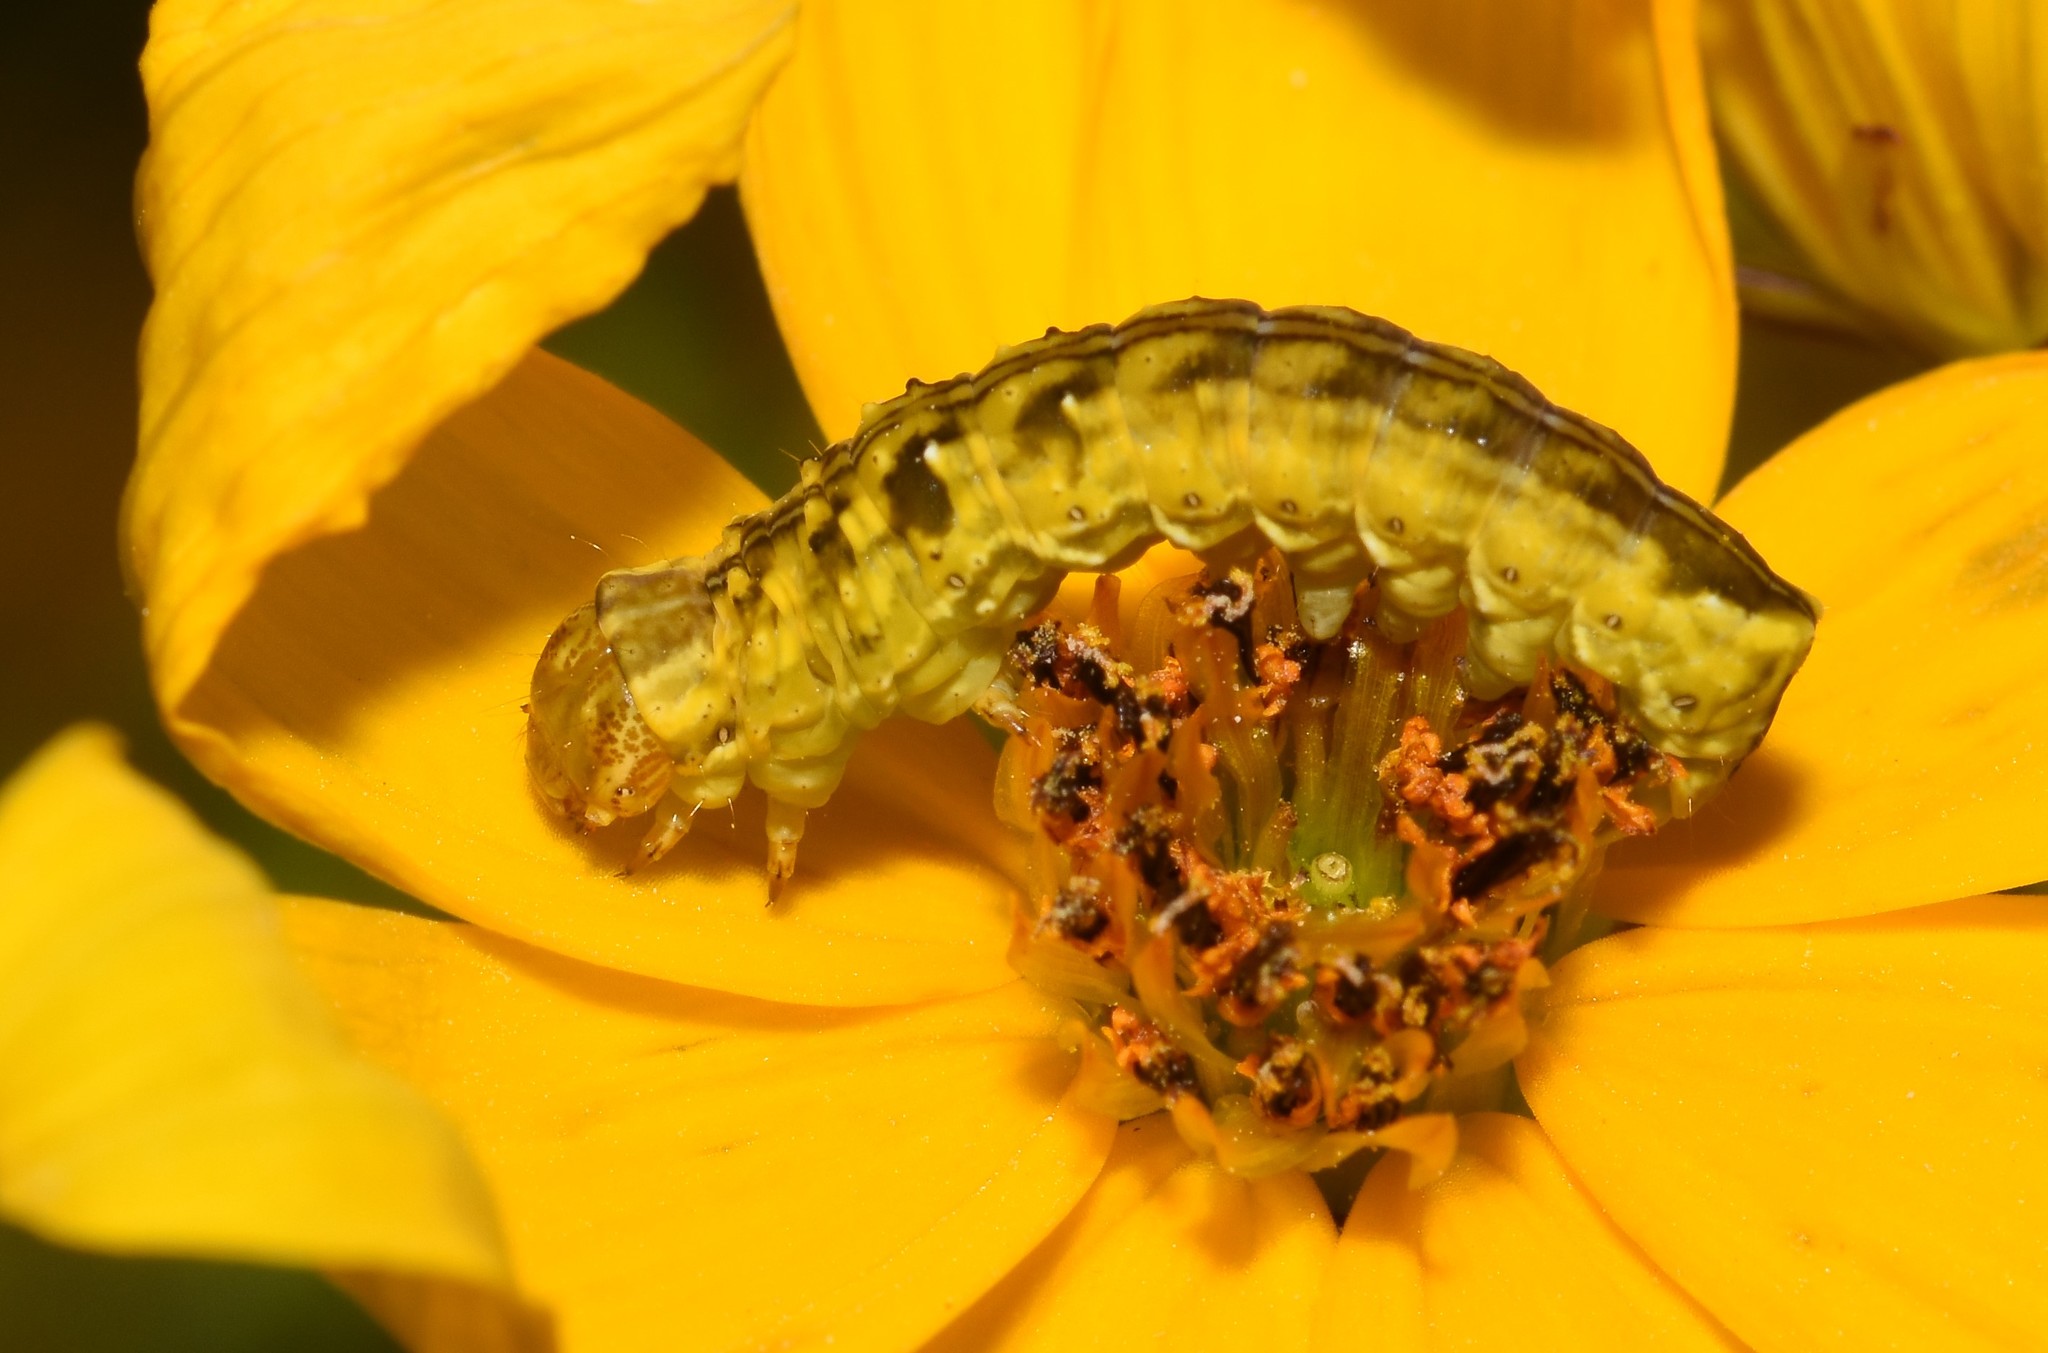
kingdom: Animalia
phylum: Arthropoda
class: Insecta
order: Lepidoptera
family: Noctuidae
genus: Cirrhophanus
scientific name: Cirrhophanus triangulifer
